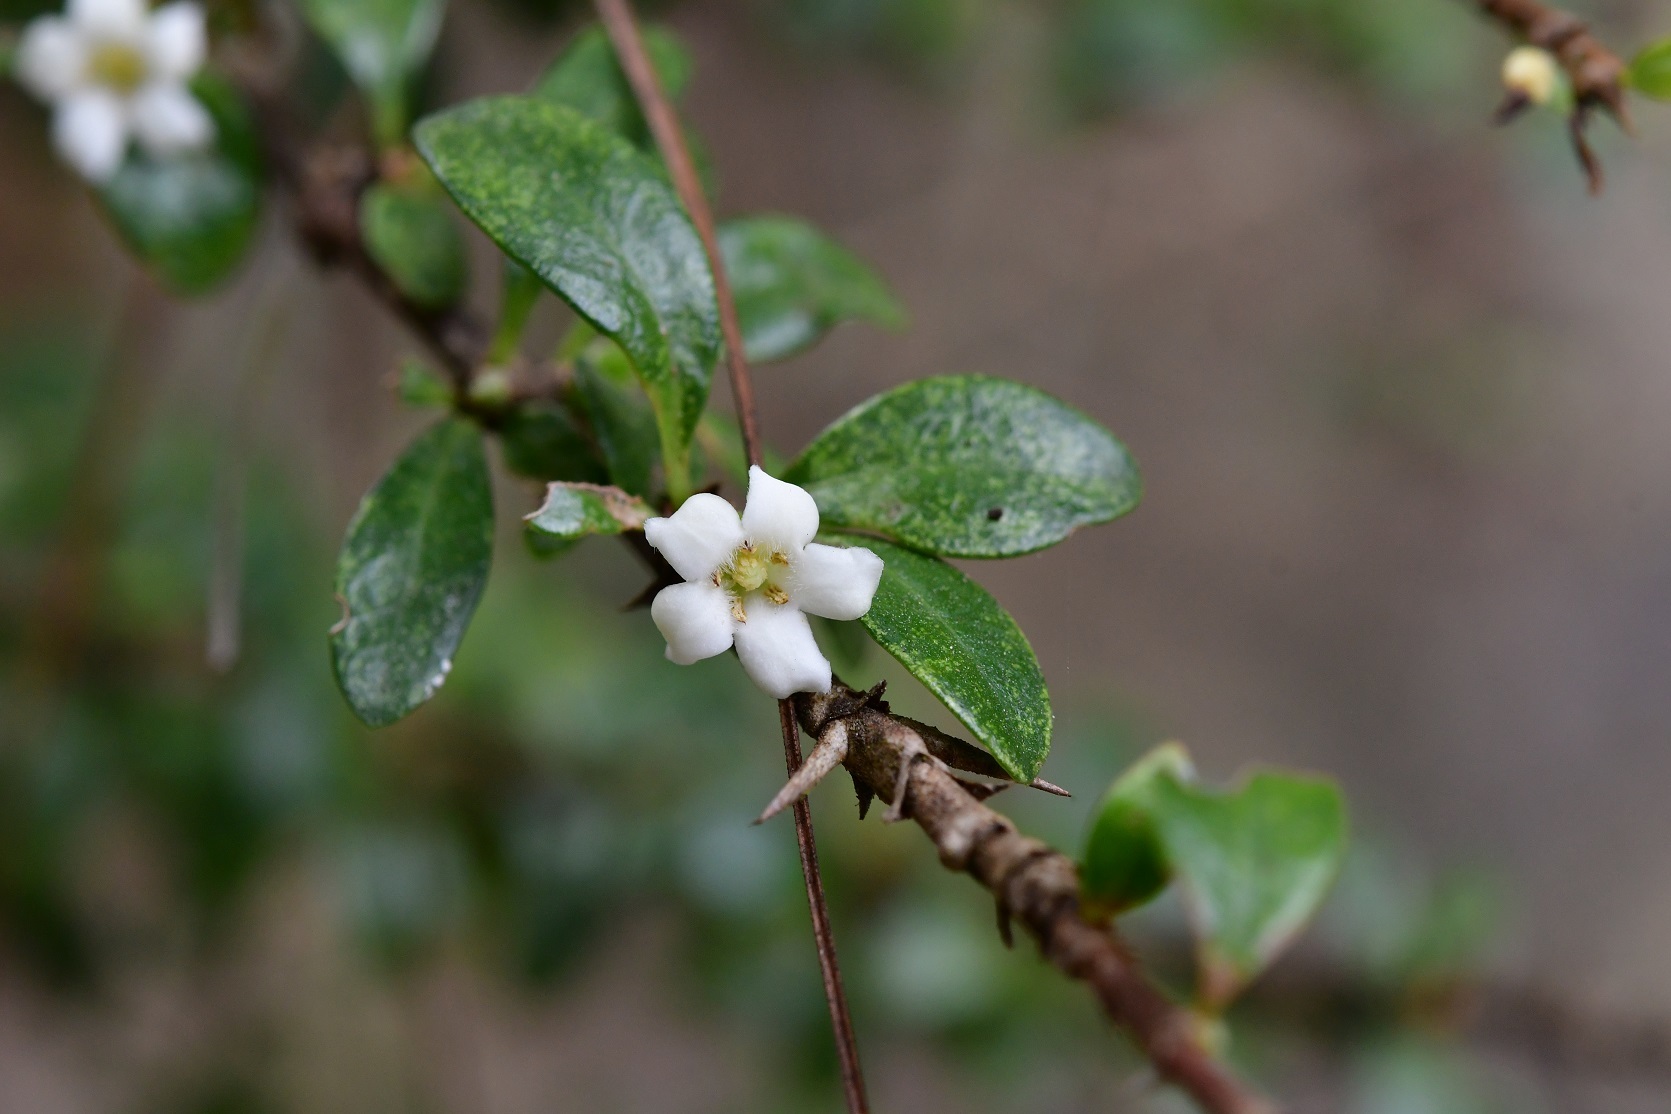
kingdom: Plantae
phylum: Tracheophyta
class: Magnoliopsida
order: Gentianales
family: Rubiaceae
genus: Randia
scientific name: Randia chiapensis
